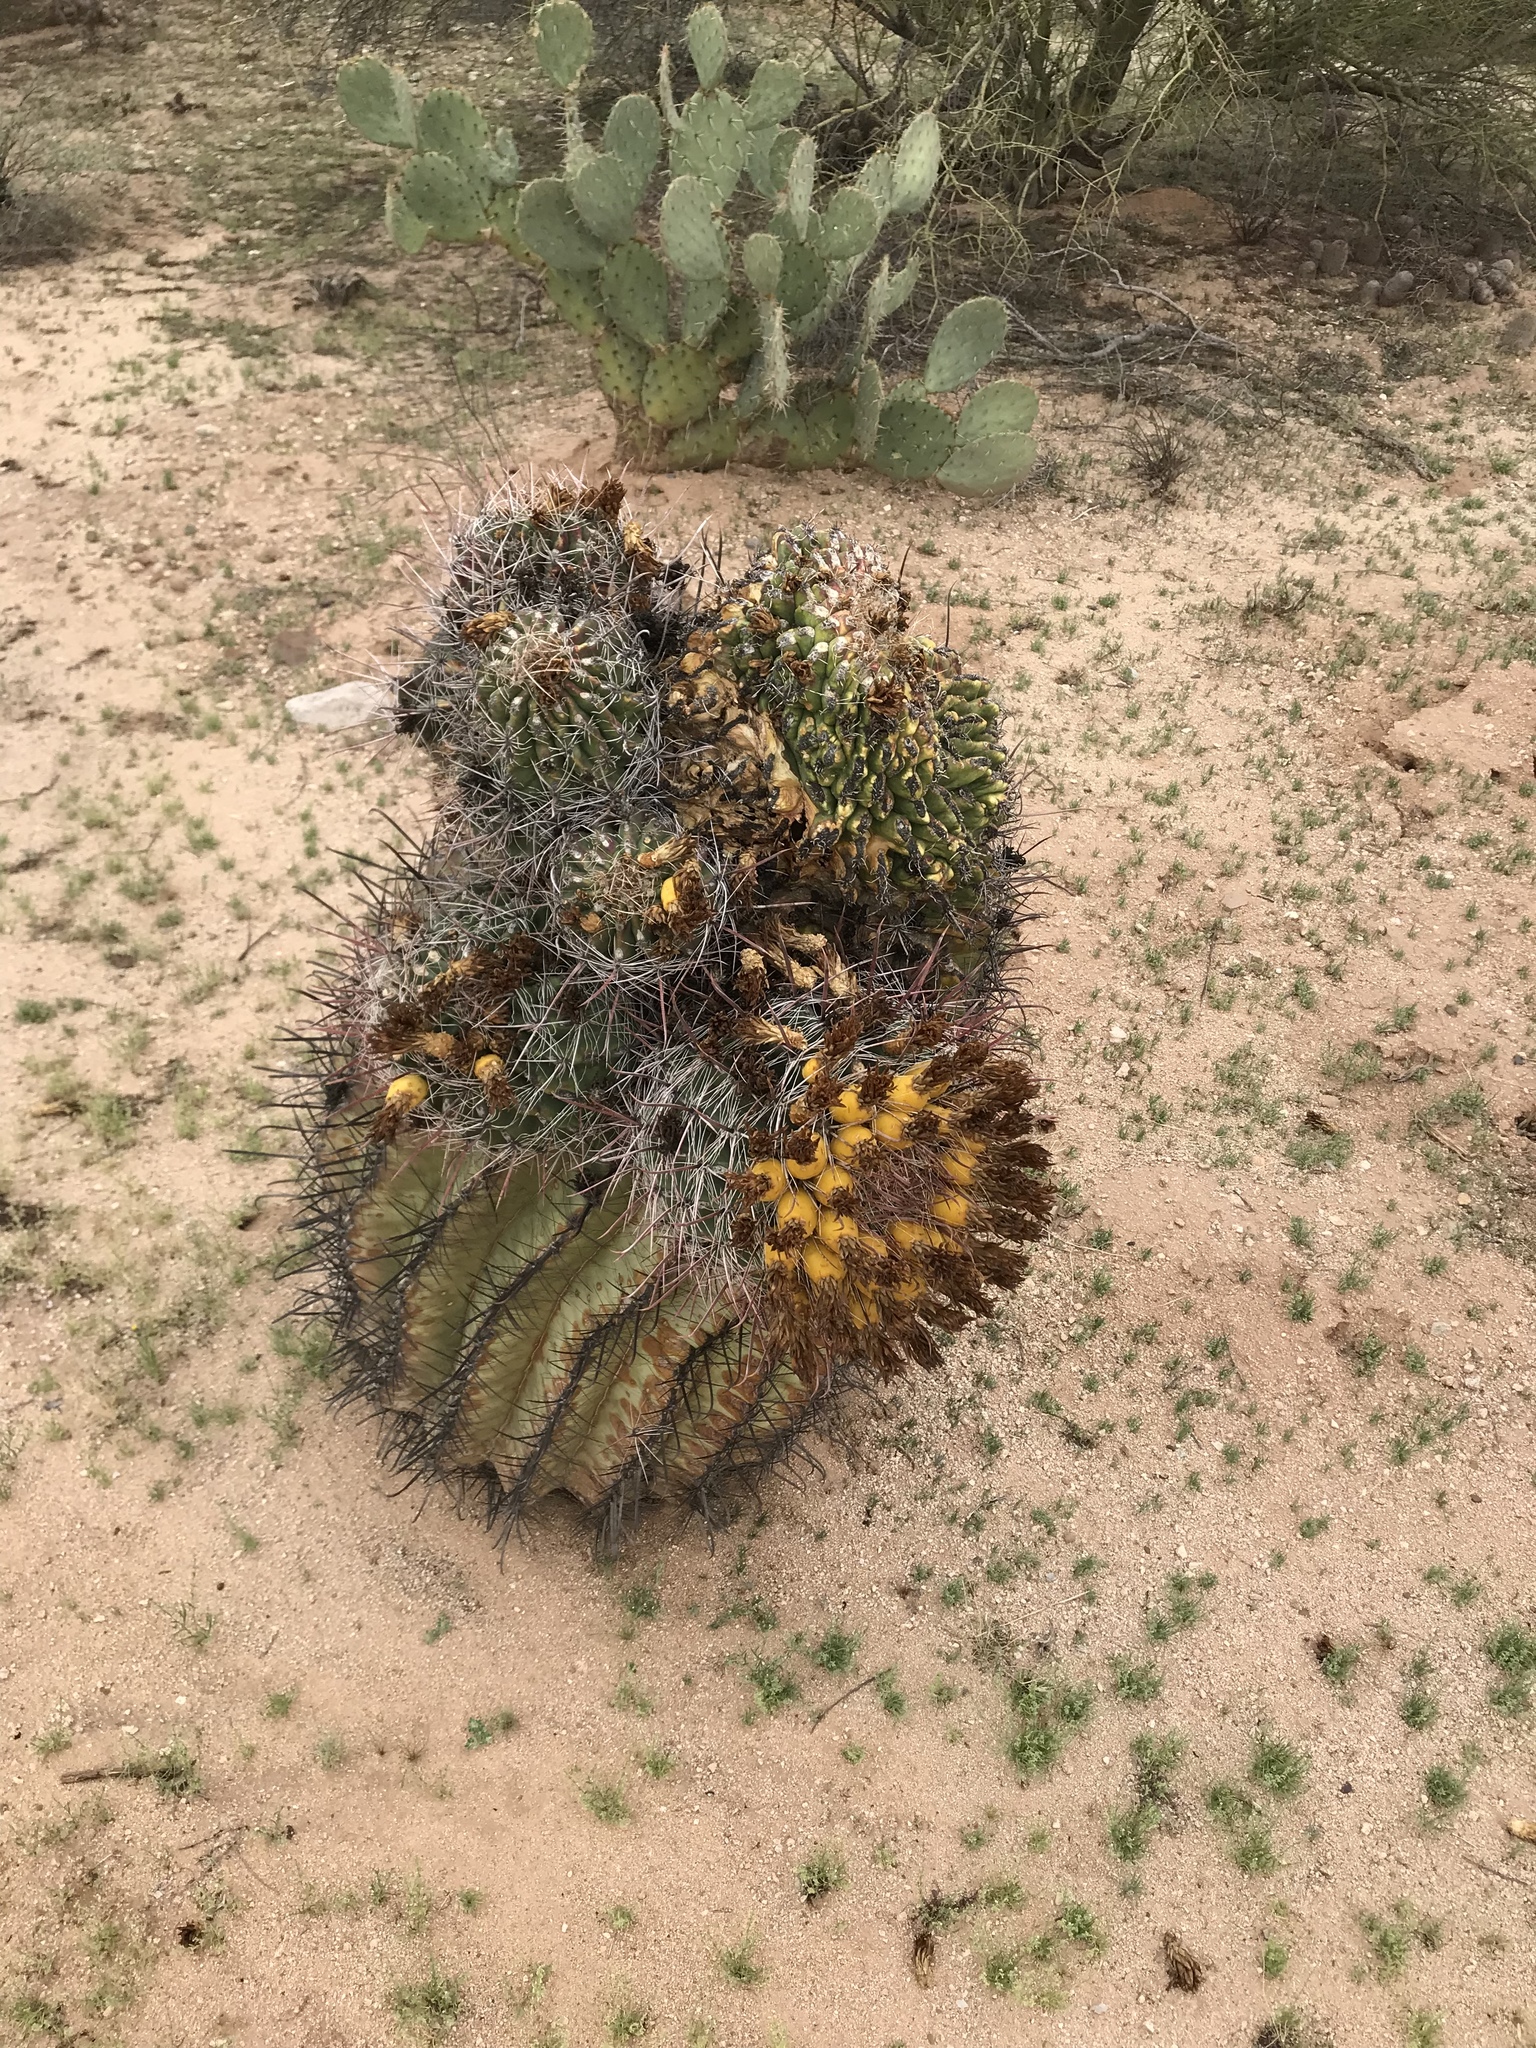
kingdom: Plantae
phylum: Tracheophyta
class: Magnoliopsida
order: Caryophyllales
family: Cactaceae
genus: Ferocactus
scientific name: Ferocactus wislizeni
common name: Candy barrel cactus
